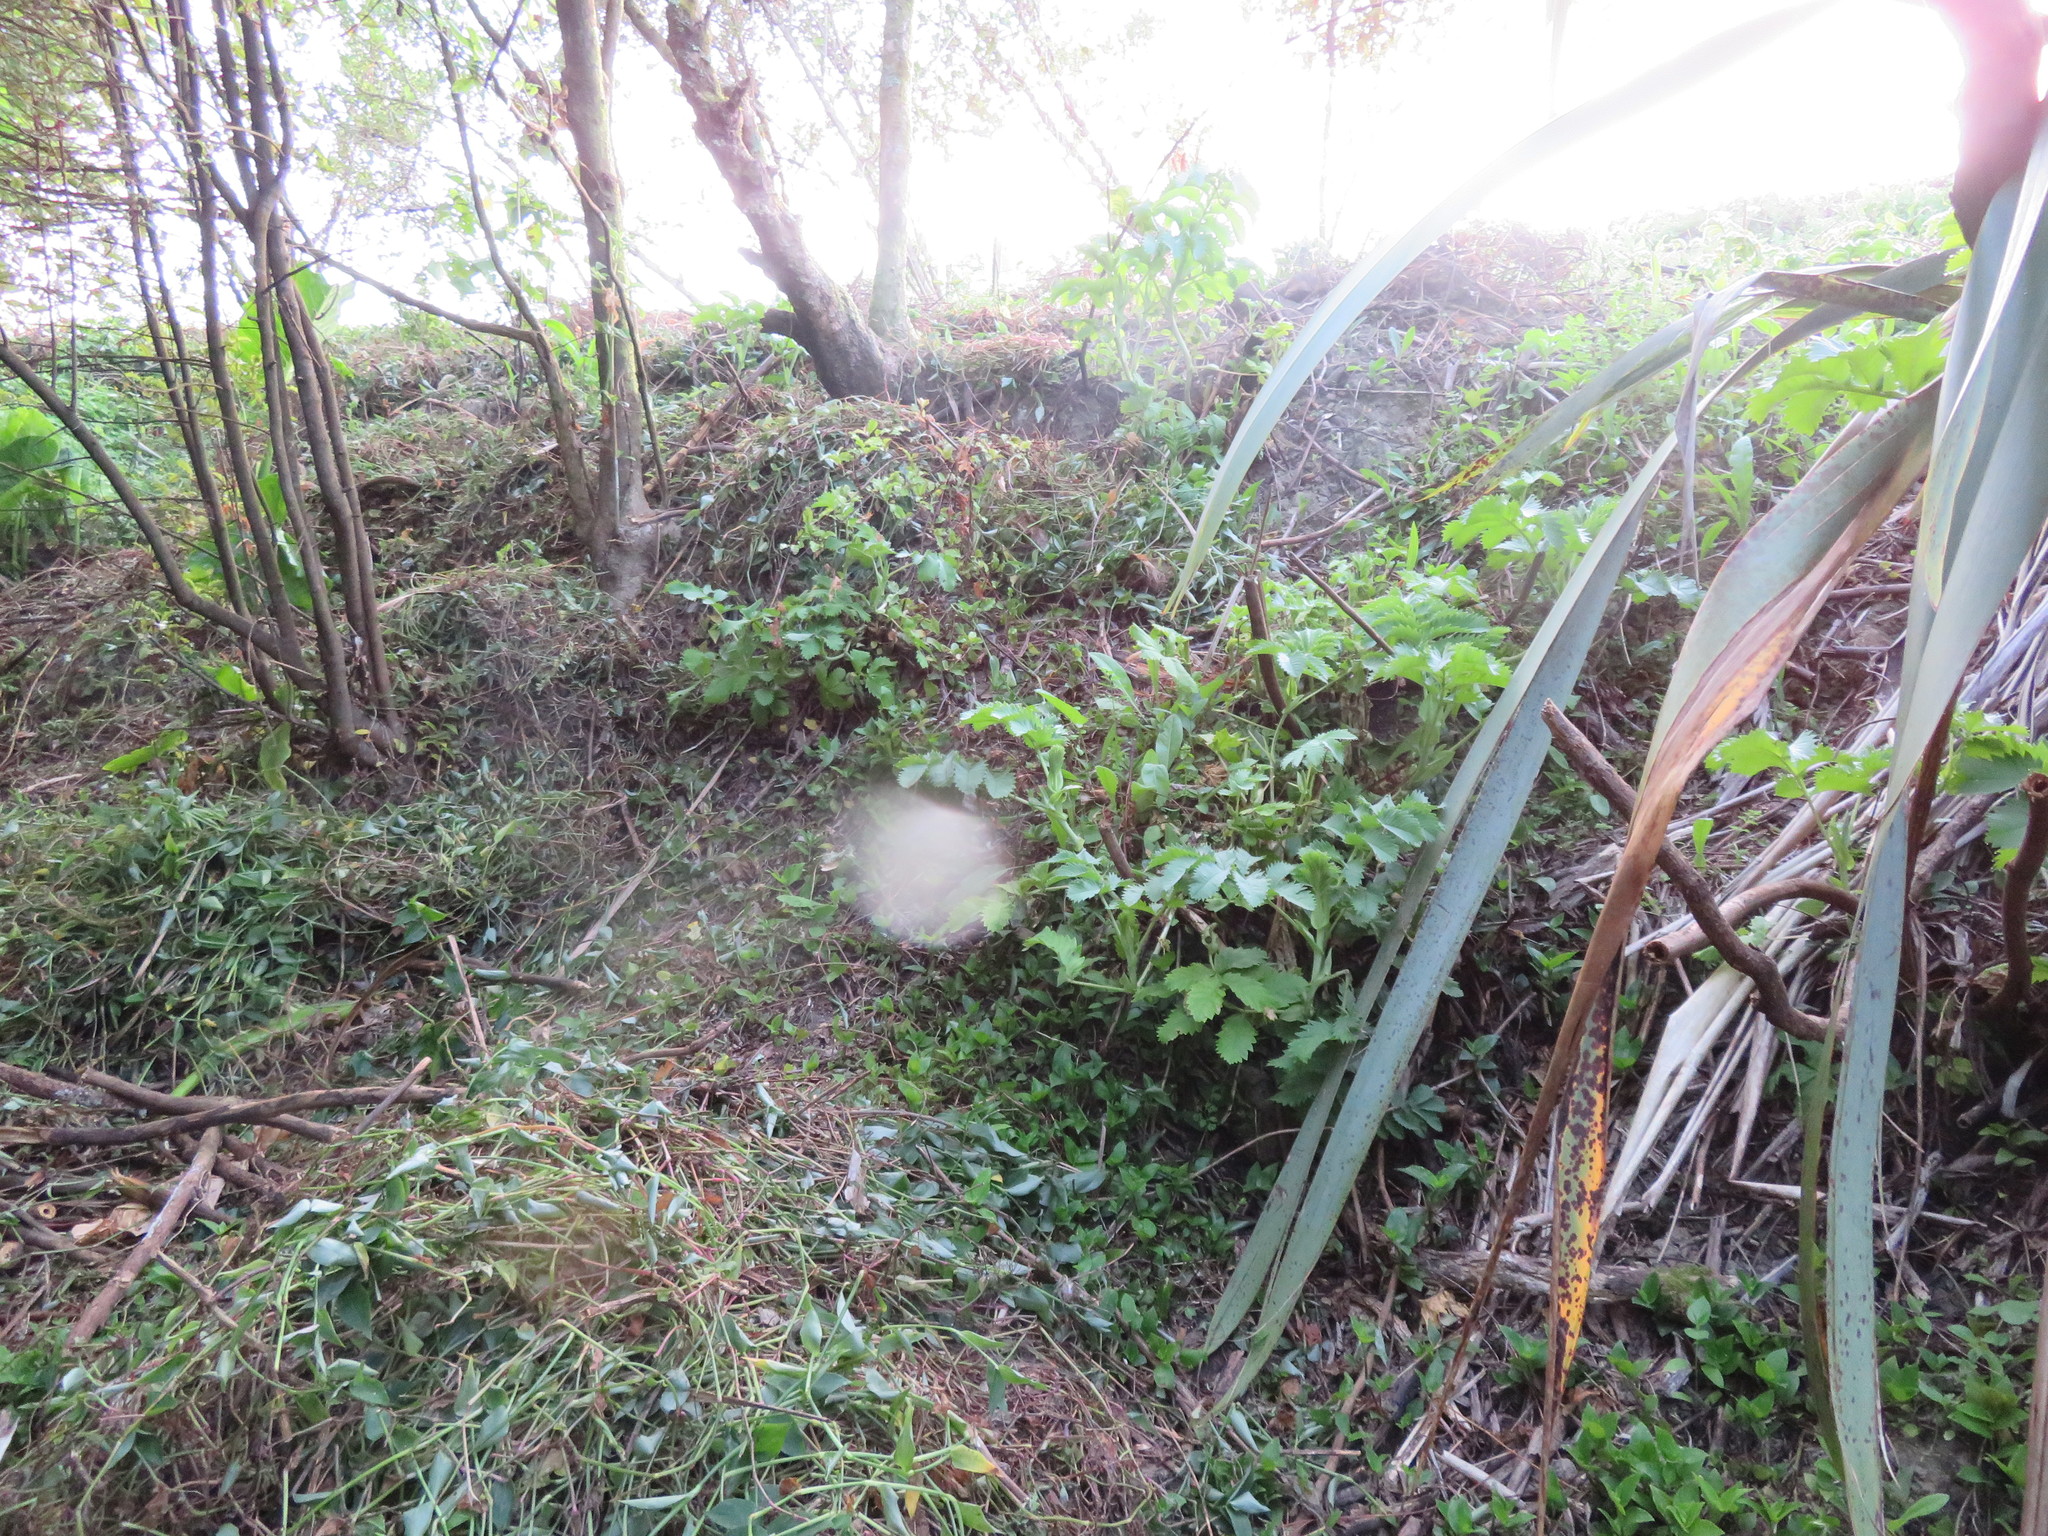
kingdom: Plantae
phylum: Tracheophyta
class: Liliopsida
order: Commelinales
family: Commelinaceae
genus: Tradescantia
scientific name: Tradescantia fluminensis
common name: Wandering-jew
